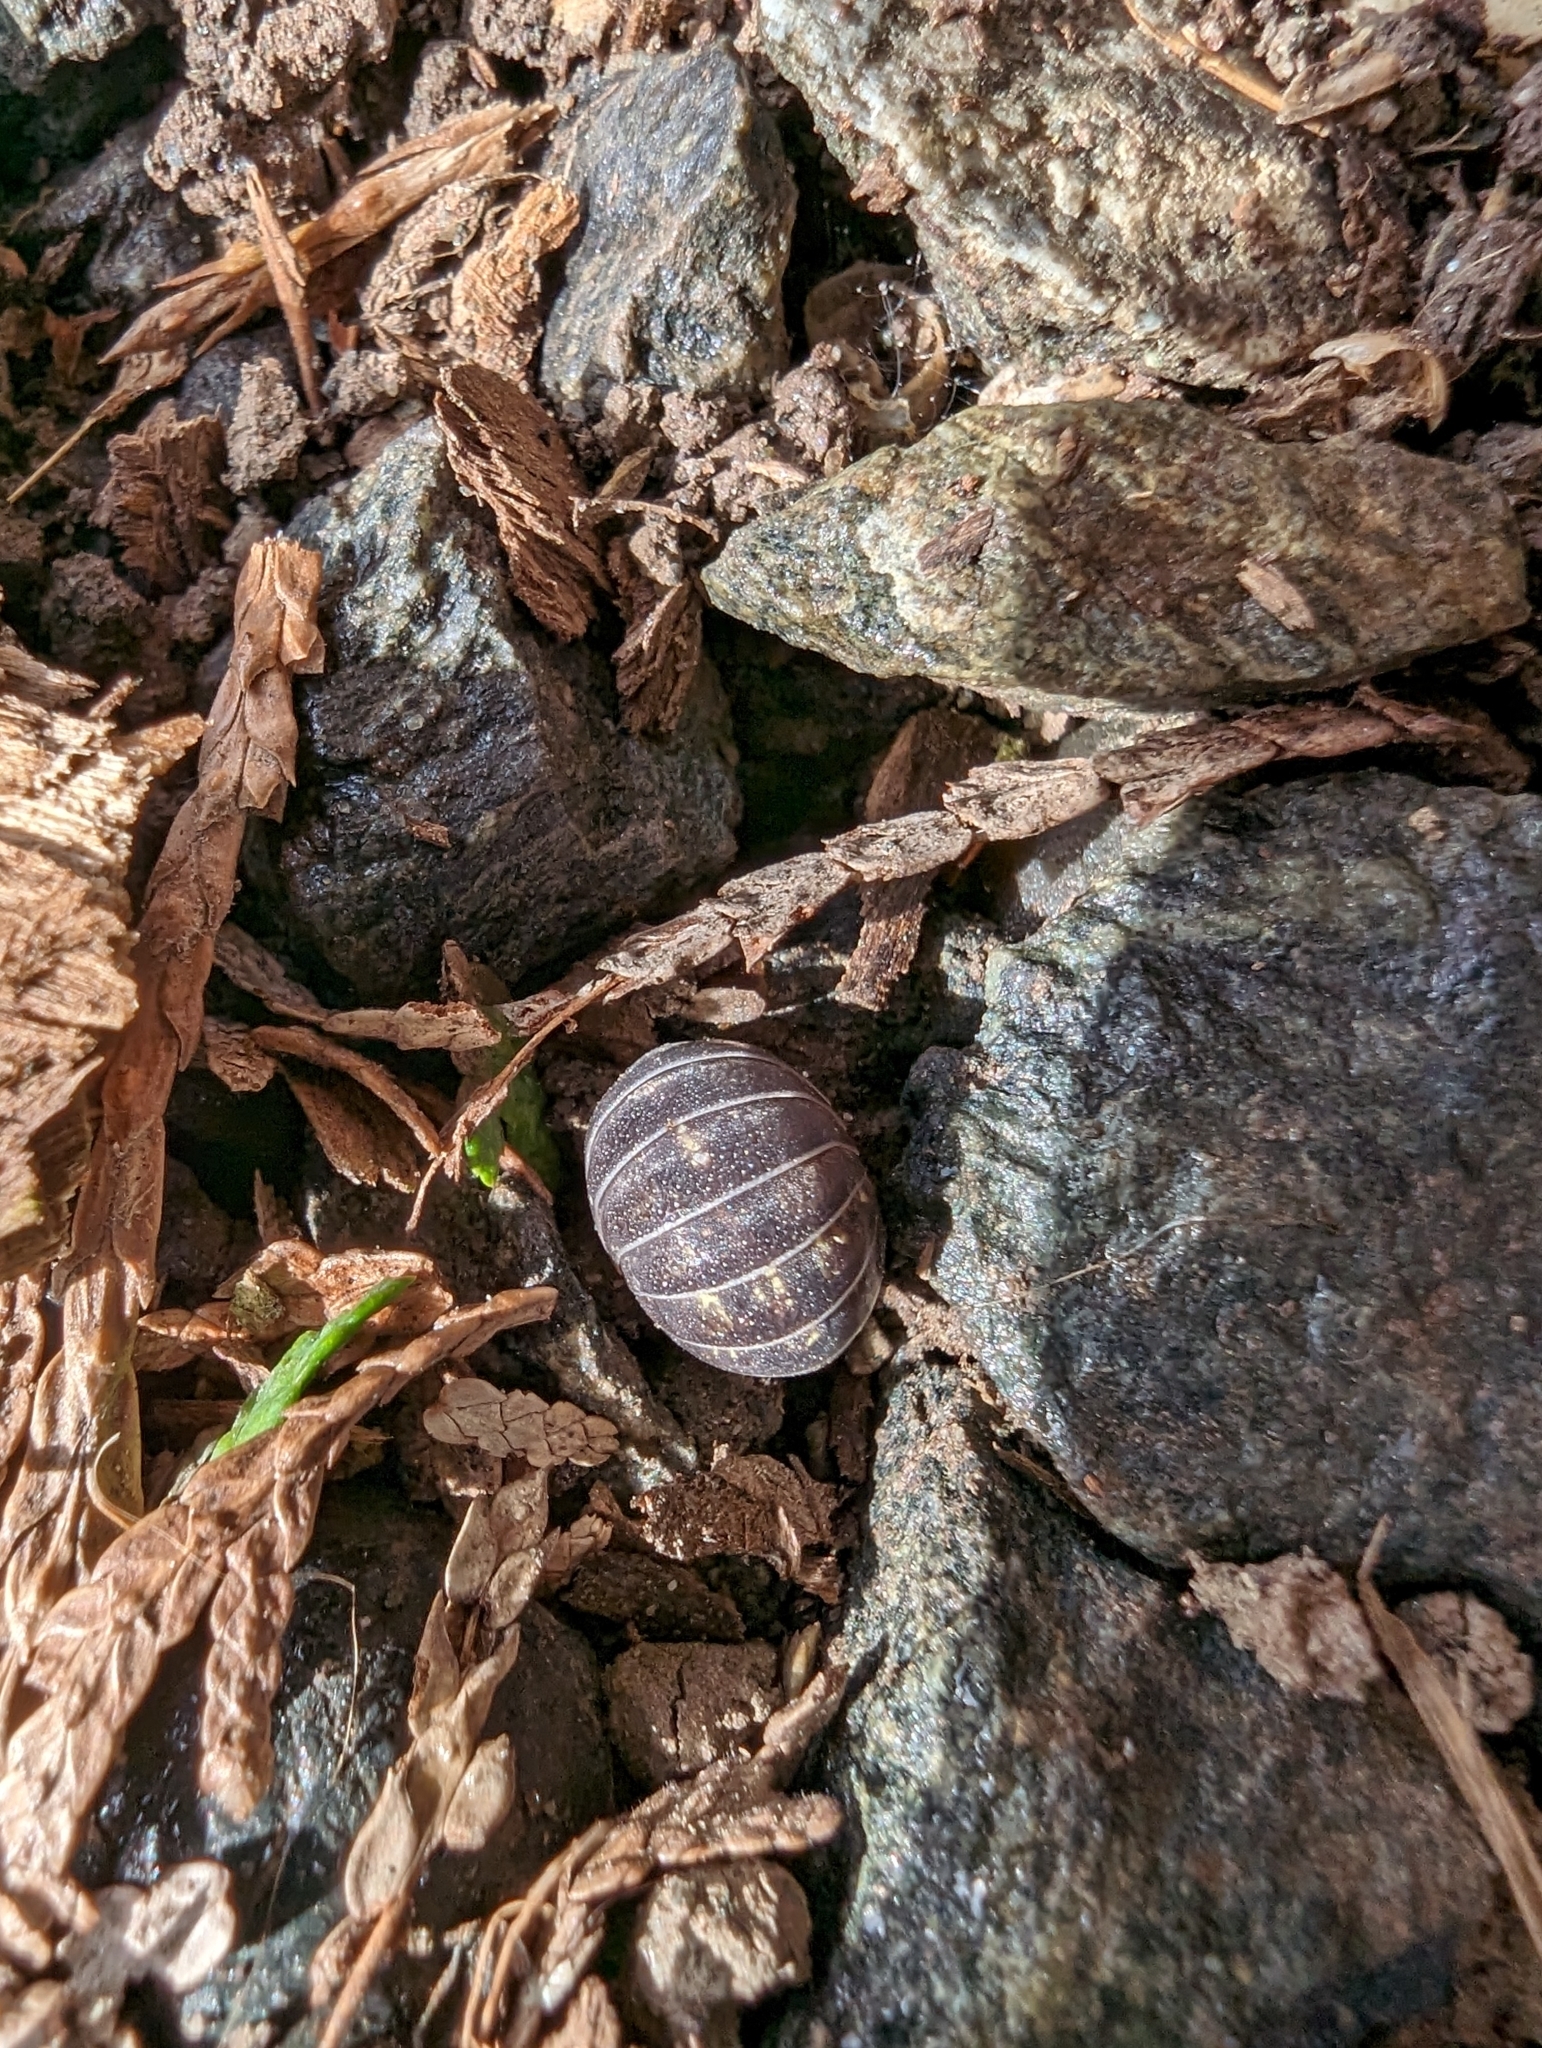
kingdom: Animalia
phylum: Arthropoda
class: Malacostraca
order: Isopoda
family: Armadillidiidae
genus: Armadillidium
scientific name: Armadillidium vulgare
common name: Common pill woodlouse
